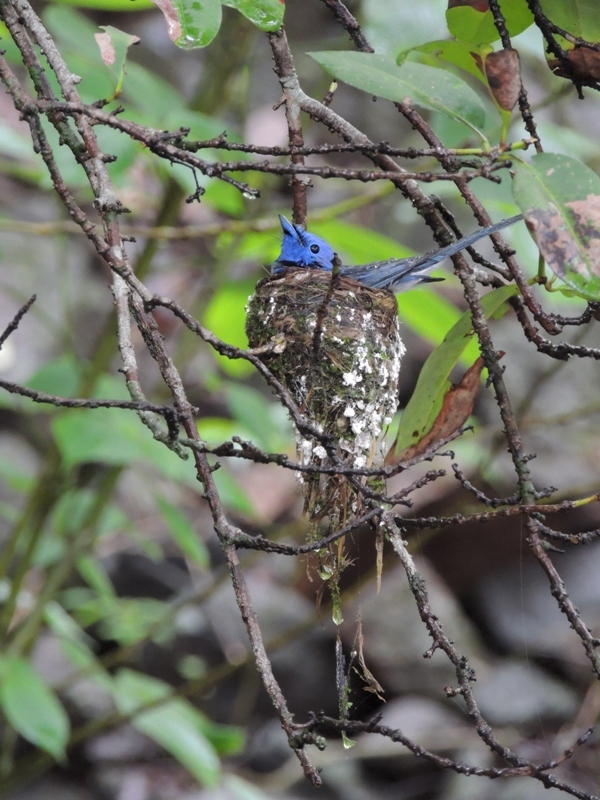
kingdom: Animalia
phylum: Chordata
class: Aves
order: Passeriformes
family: Monarchidae
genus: Hypothymis
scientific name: Hypothymis azurea
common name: Black-naped monarch
